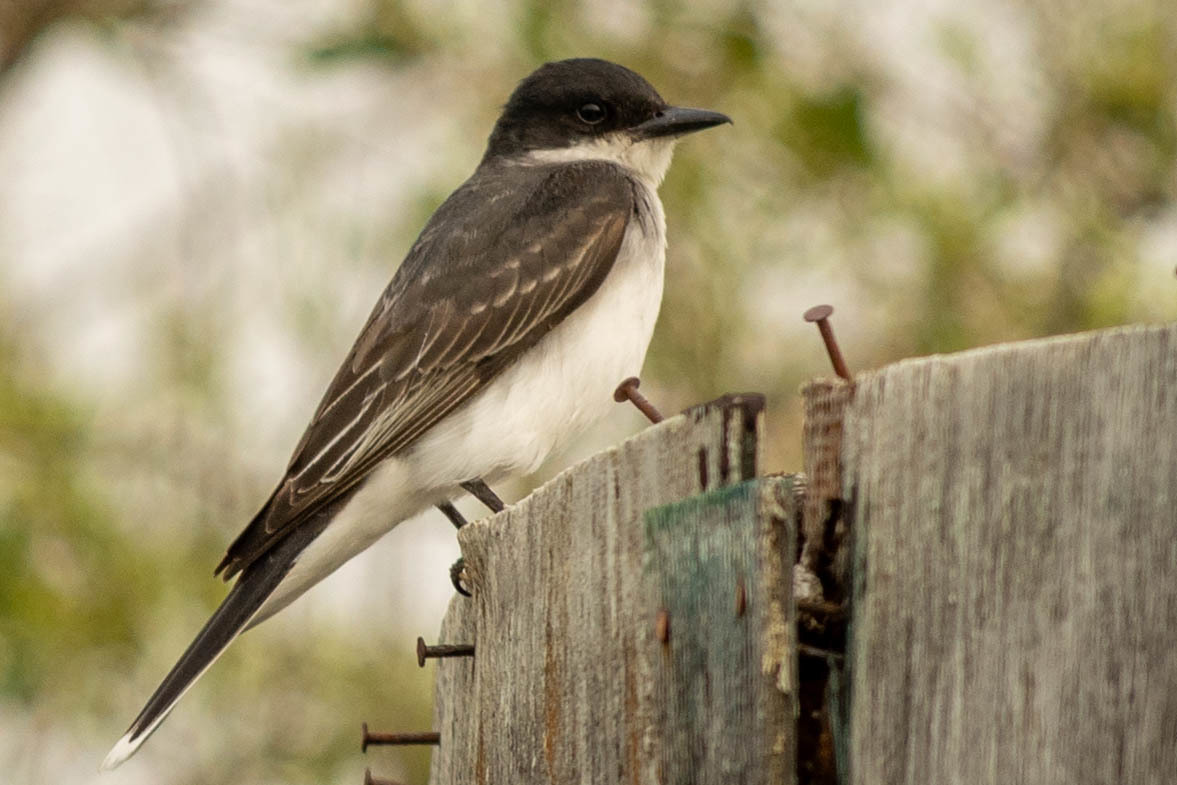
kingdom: Animalia
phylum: Chordata
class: Aves
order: Passeriformes
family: Tyrannidae
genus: Tyrannus
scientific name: Tyrannus tyrannus
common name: Eastern kingbird
